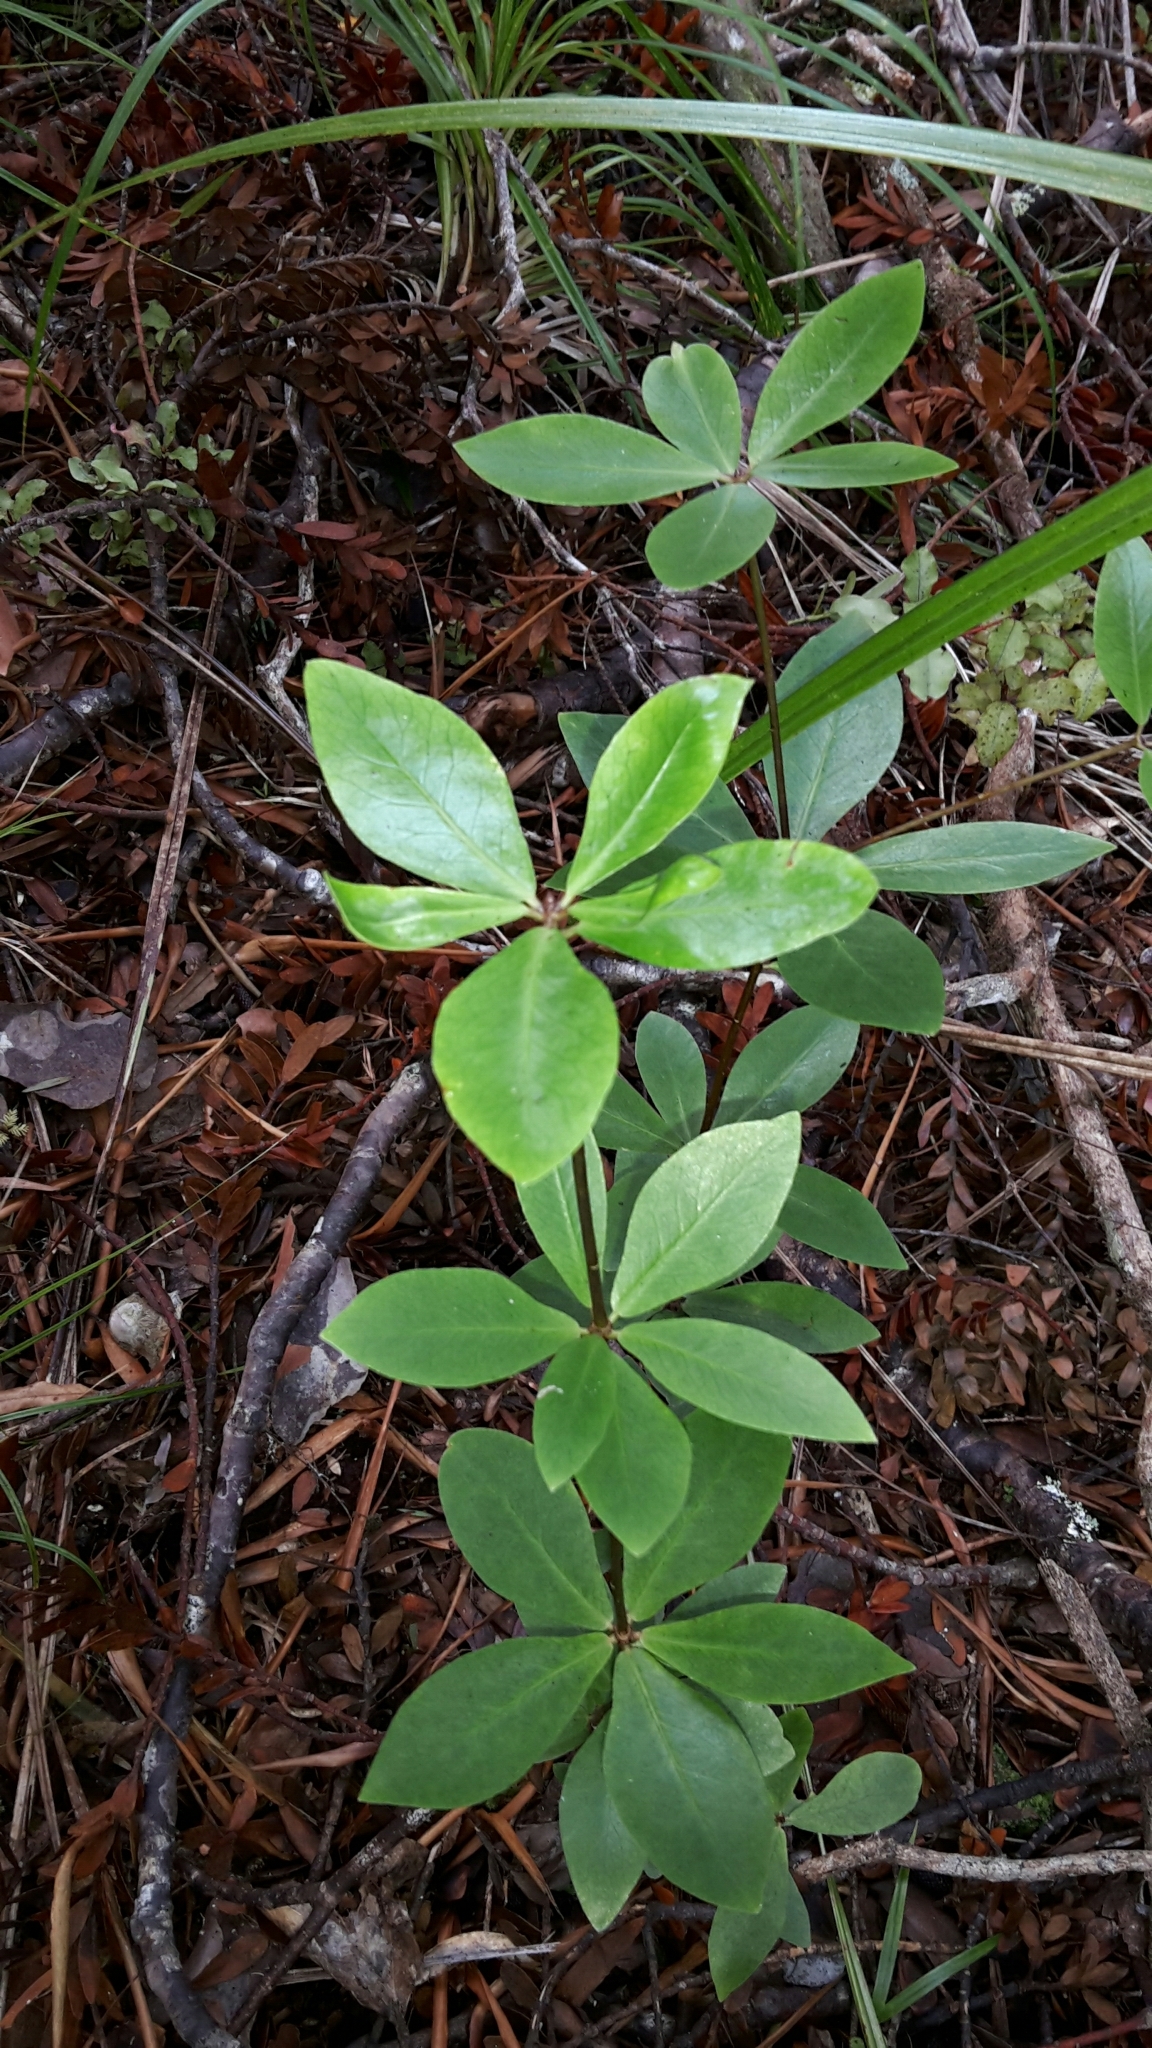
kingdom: Plantae
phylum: Tracheophyta
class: Magnoliopsida
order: Apiales
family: Pittosporaceae
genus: Pittosporum
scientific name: Pittosporum cornifolium
